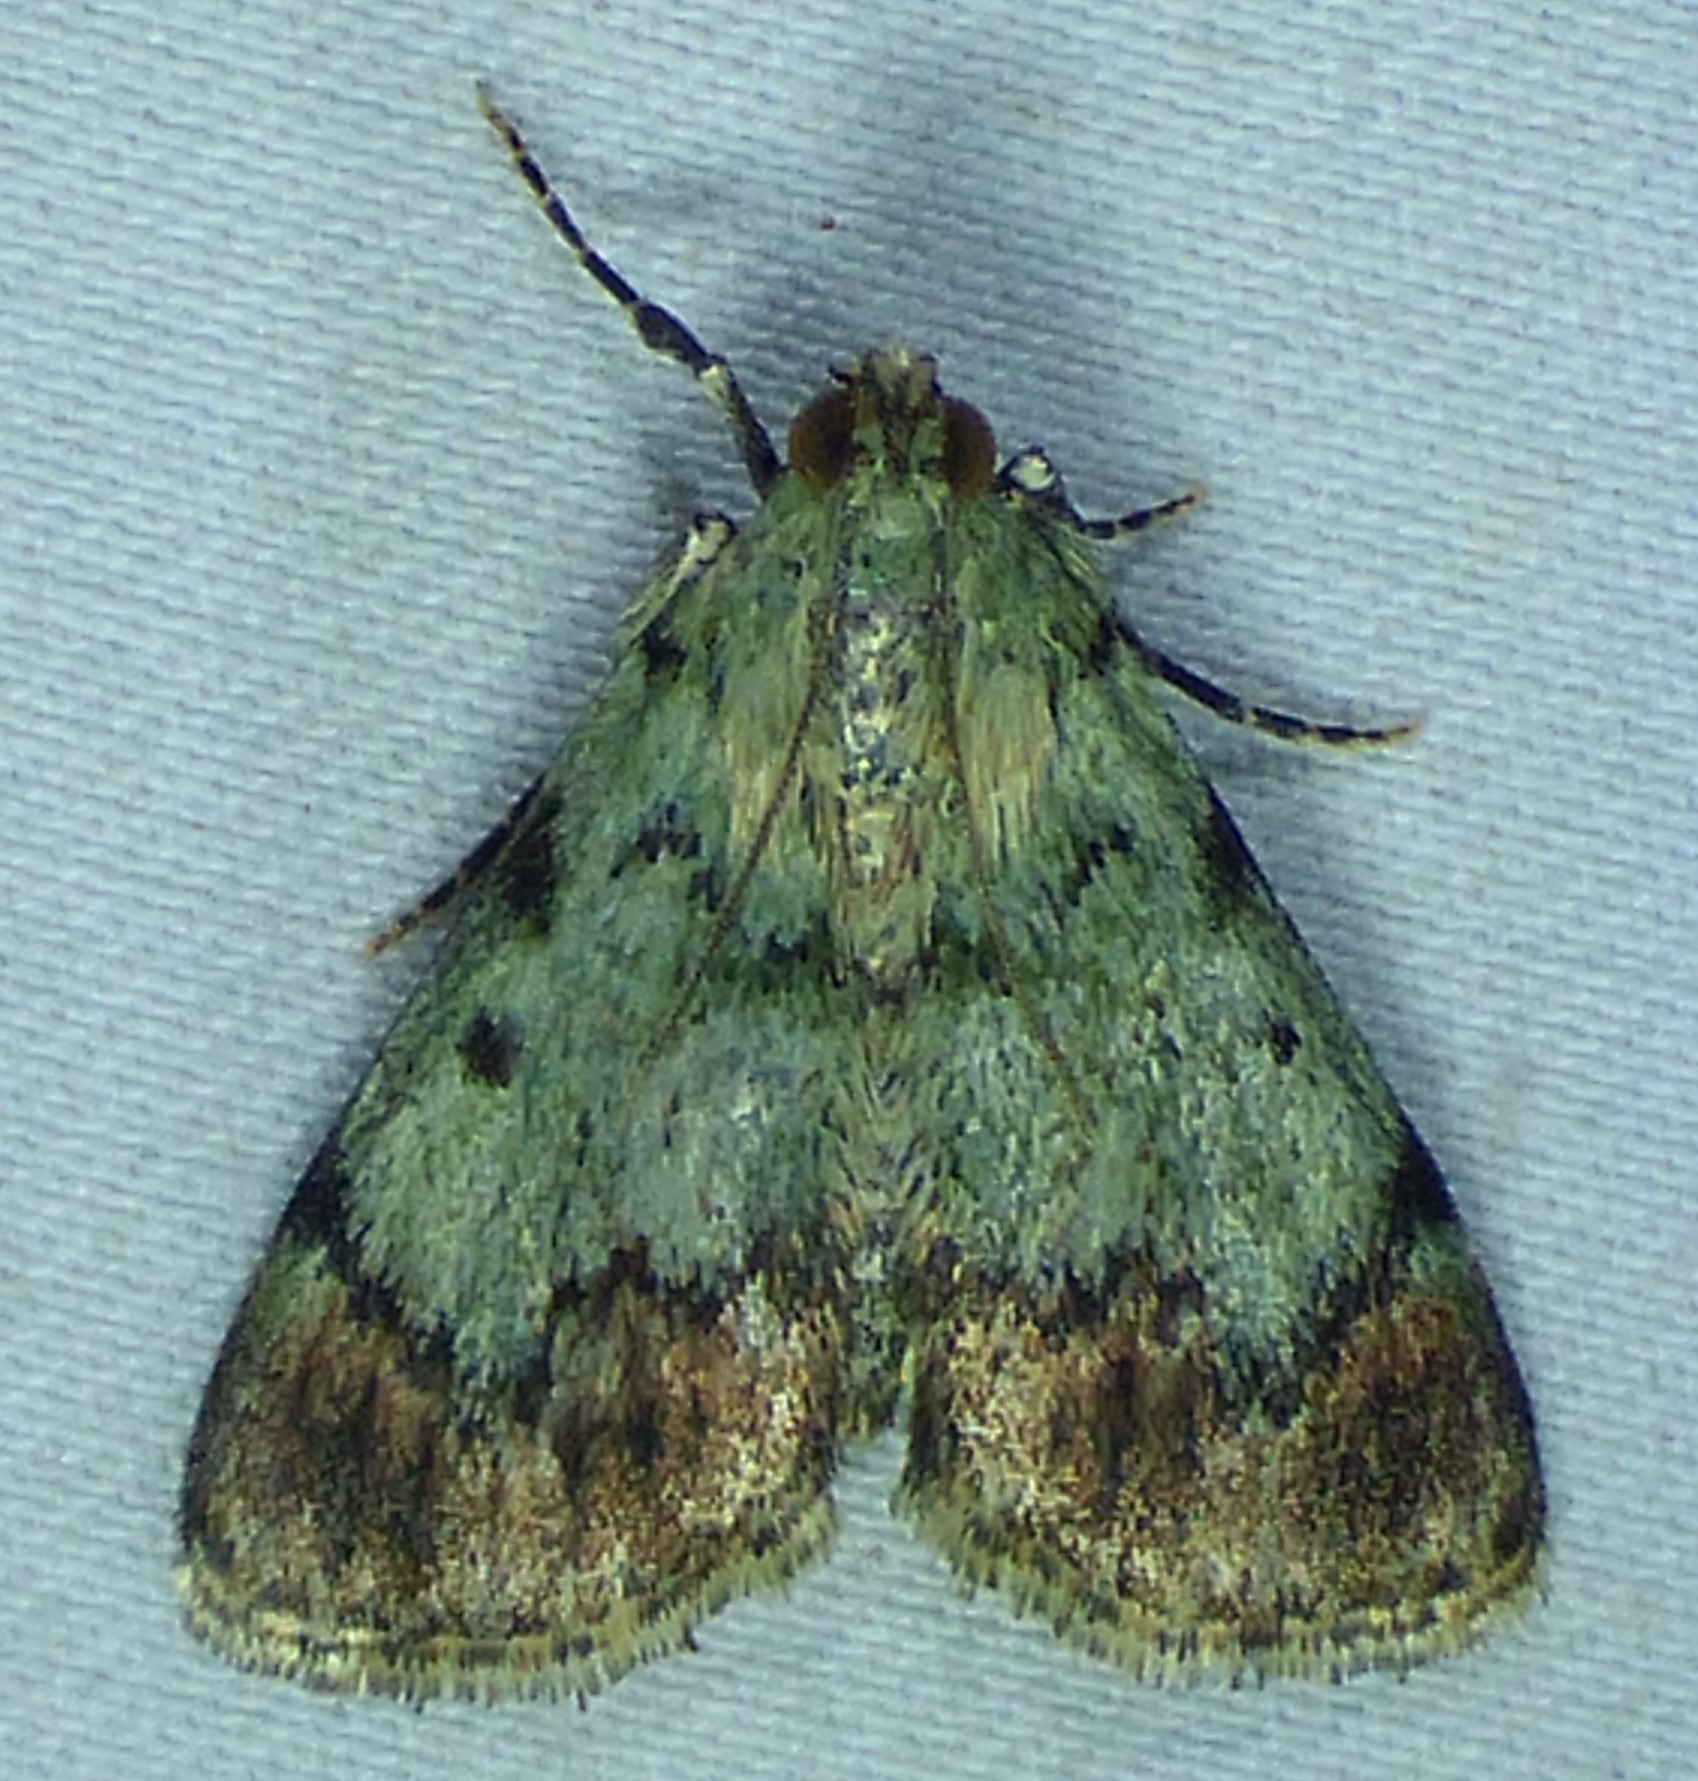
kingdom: Animalia
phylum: Arthropoda
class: Insecta
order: Lepidoptera
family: Pyralidae
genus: Epipaschia
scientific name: Epipaschia superatalis
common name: Dimorphic macalla moth
